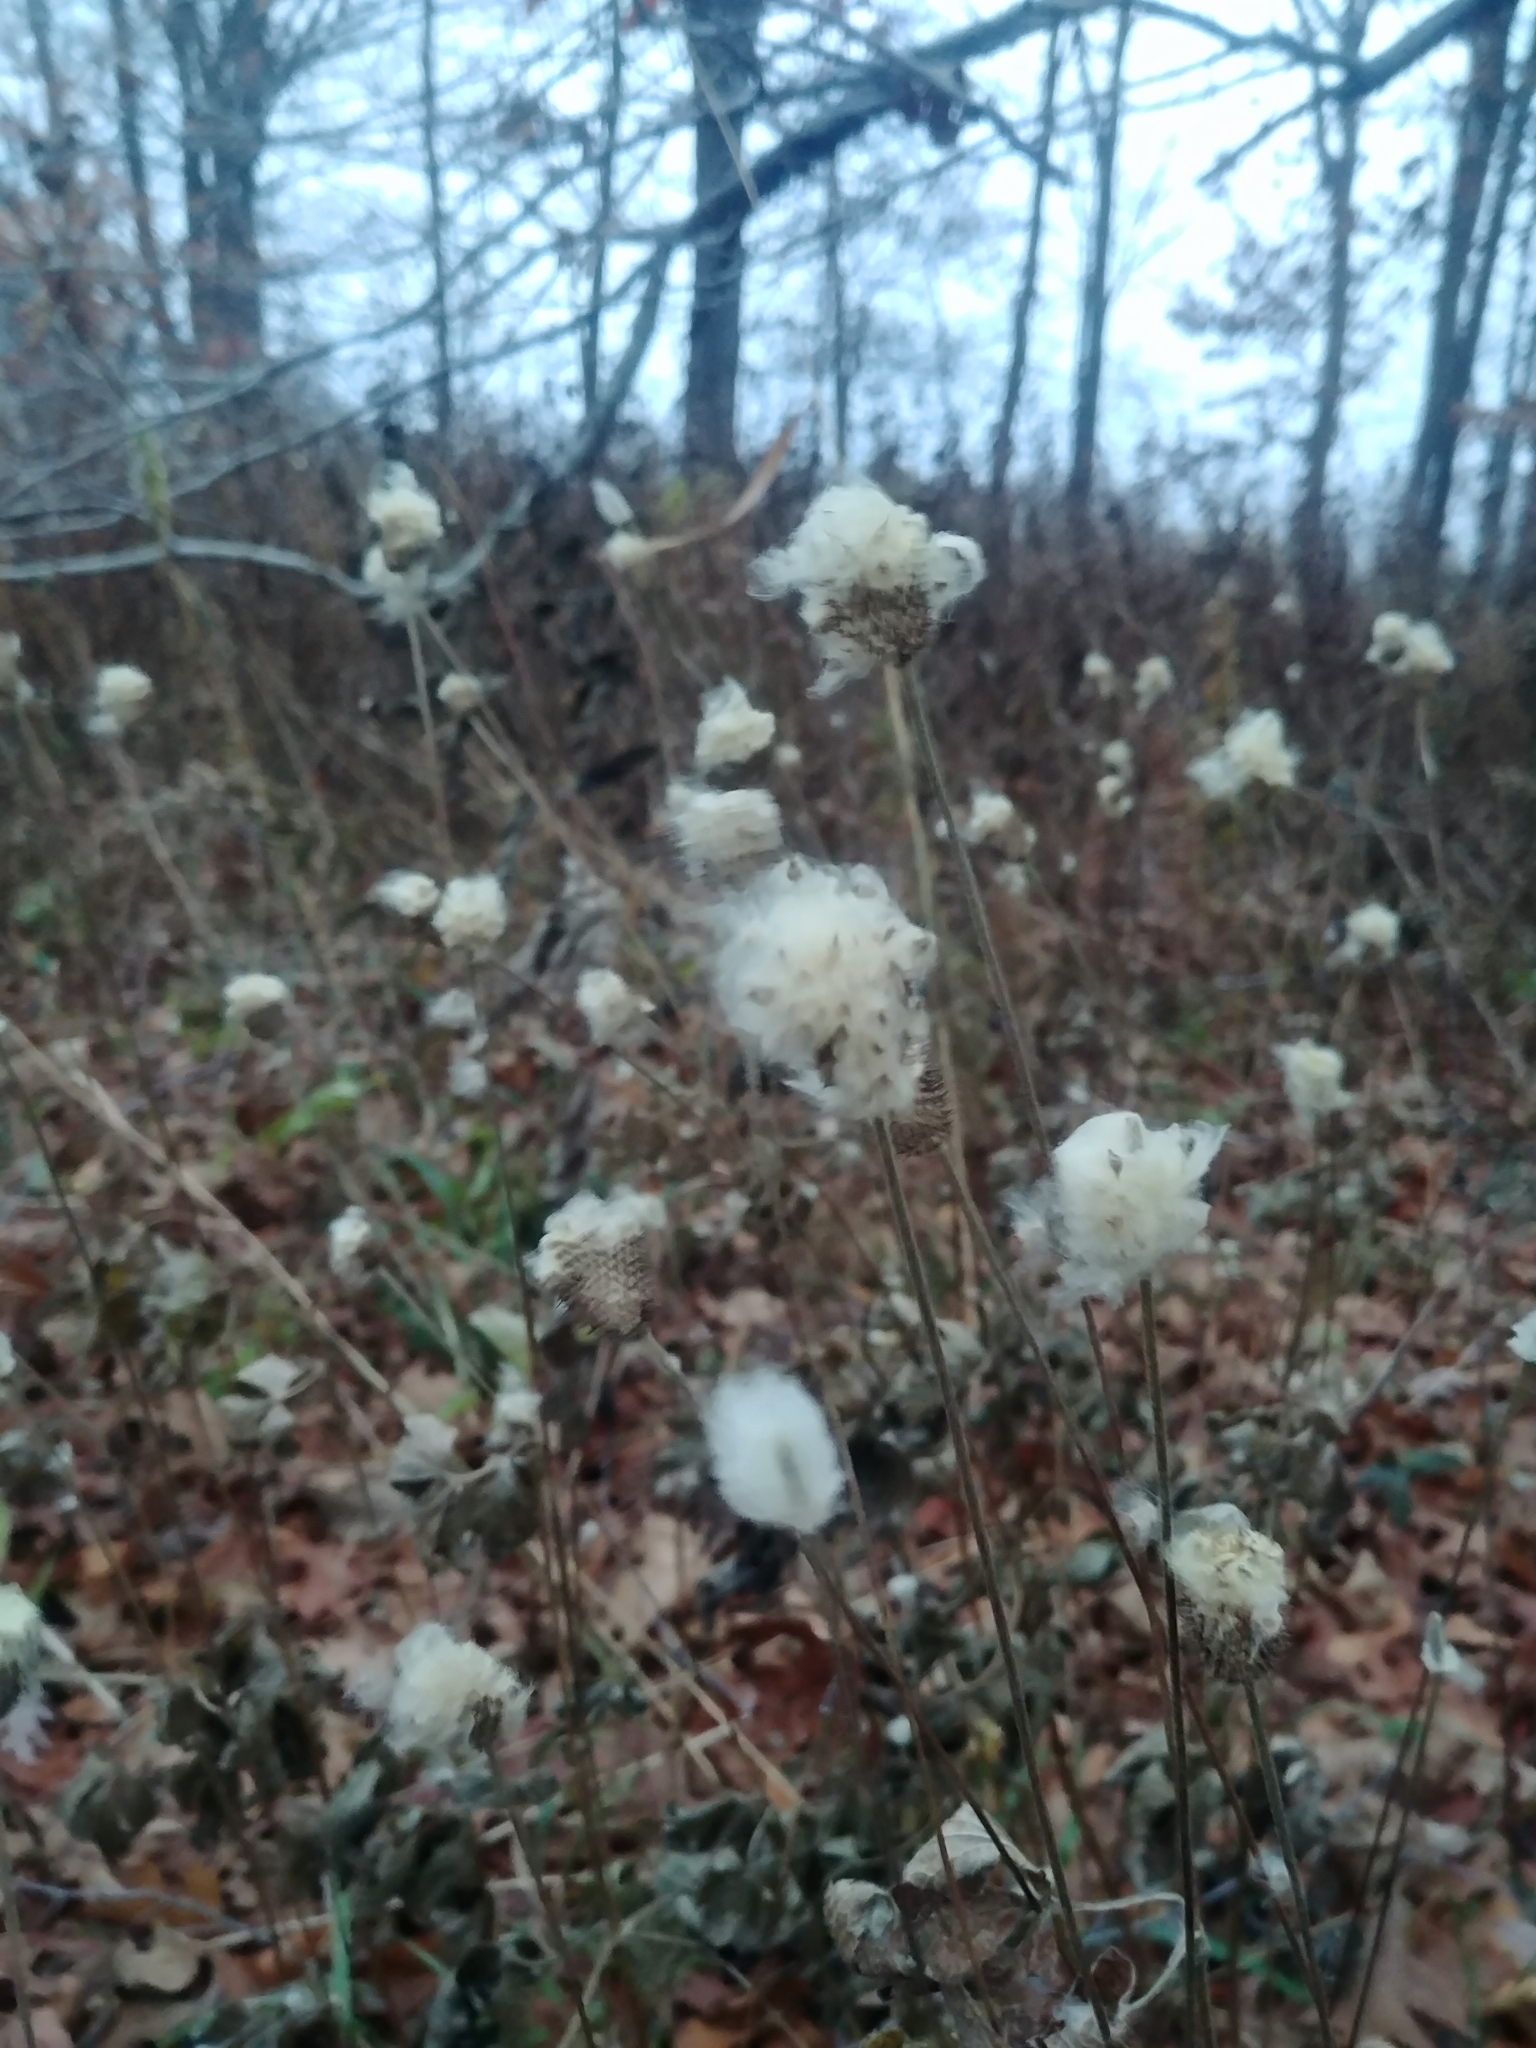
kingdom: Plantae
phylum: Tracheophyta
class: Magnoliopsida
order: Ranunculales
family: Ranunculaceae
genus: Anemone
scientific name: Anemone virginiana
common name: Tall anemone
